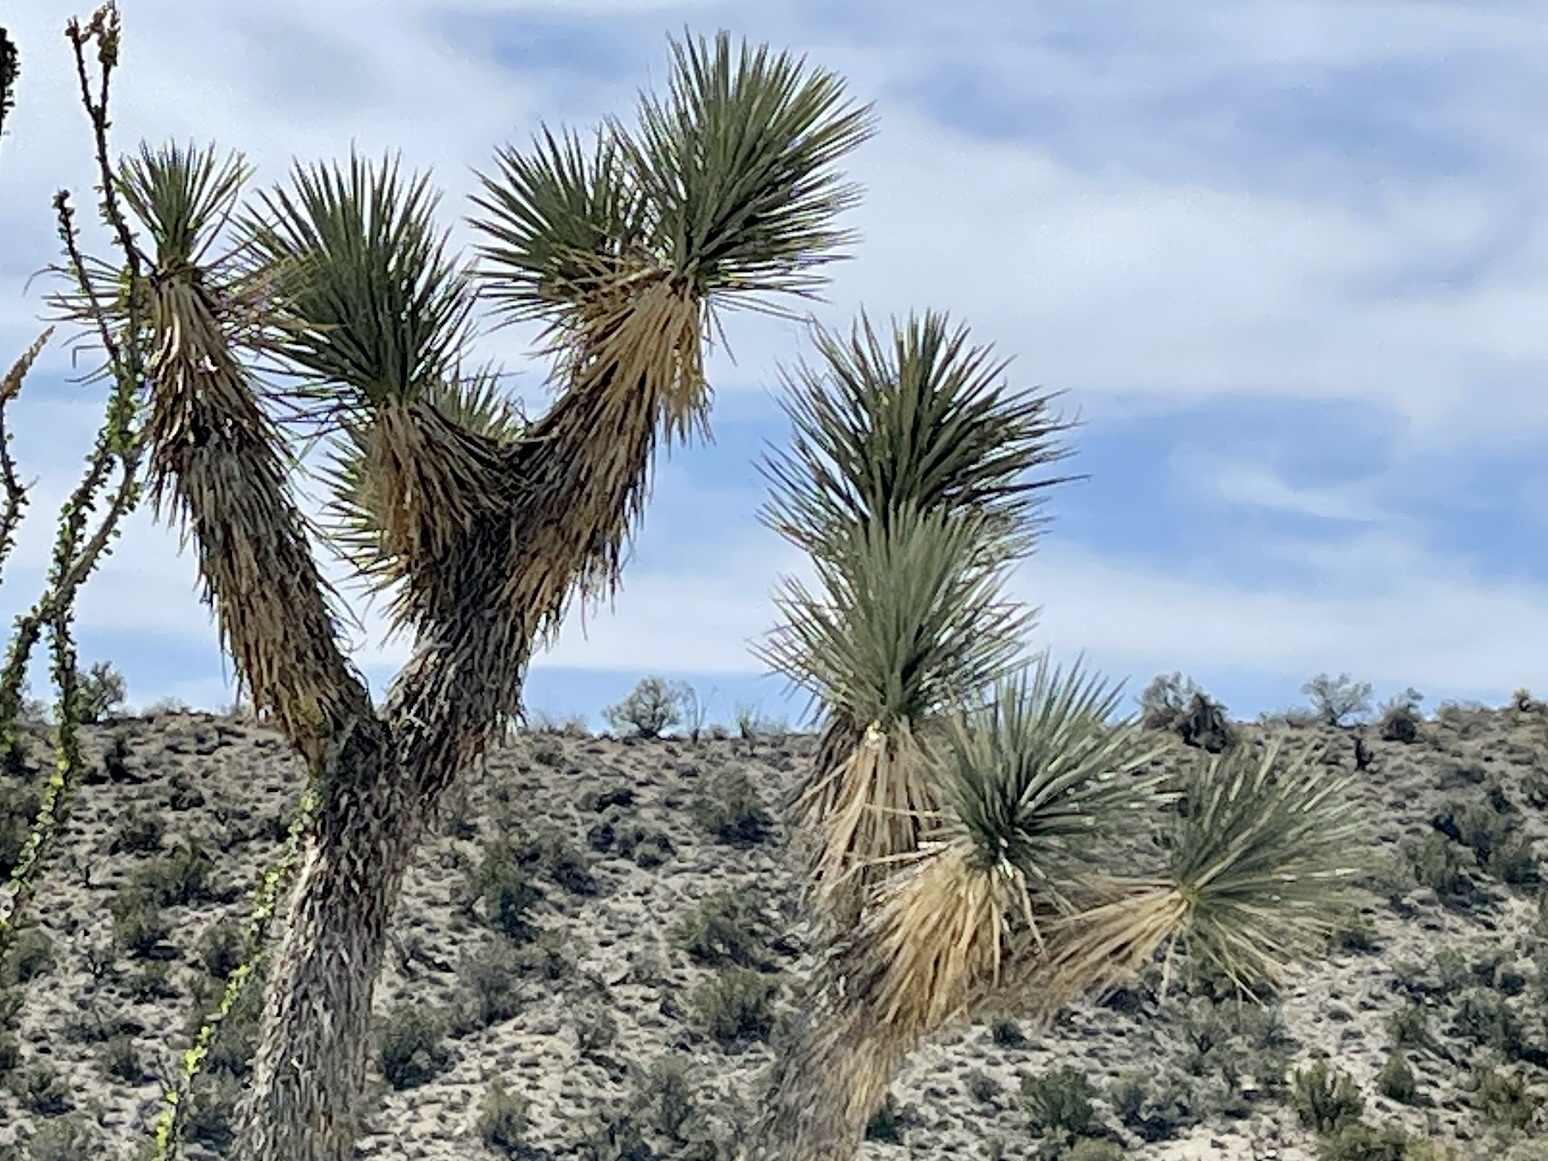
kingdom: Plantae
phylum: Tracheophyta
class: Liliopsida
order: Asparagales
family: Asparagaceae
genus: Yucca
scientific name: Yucca brevifolia
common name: Joshua tree
